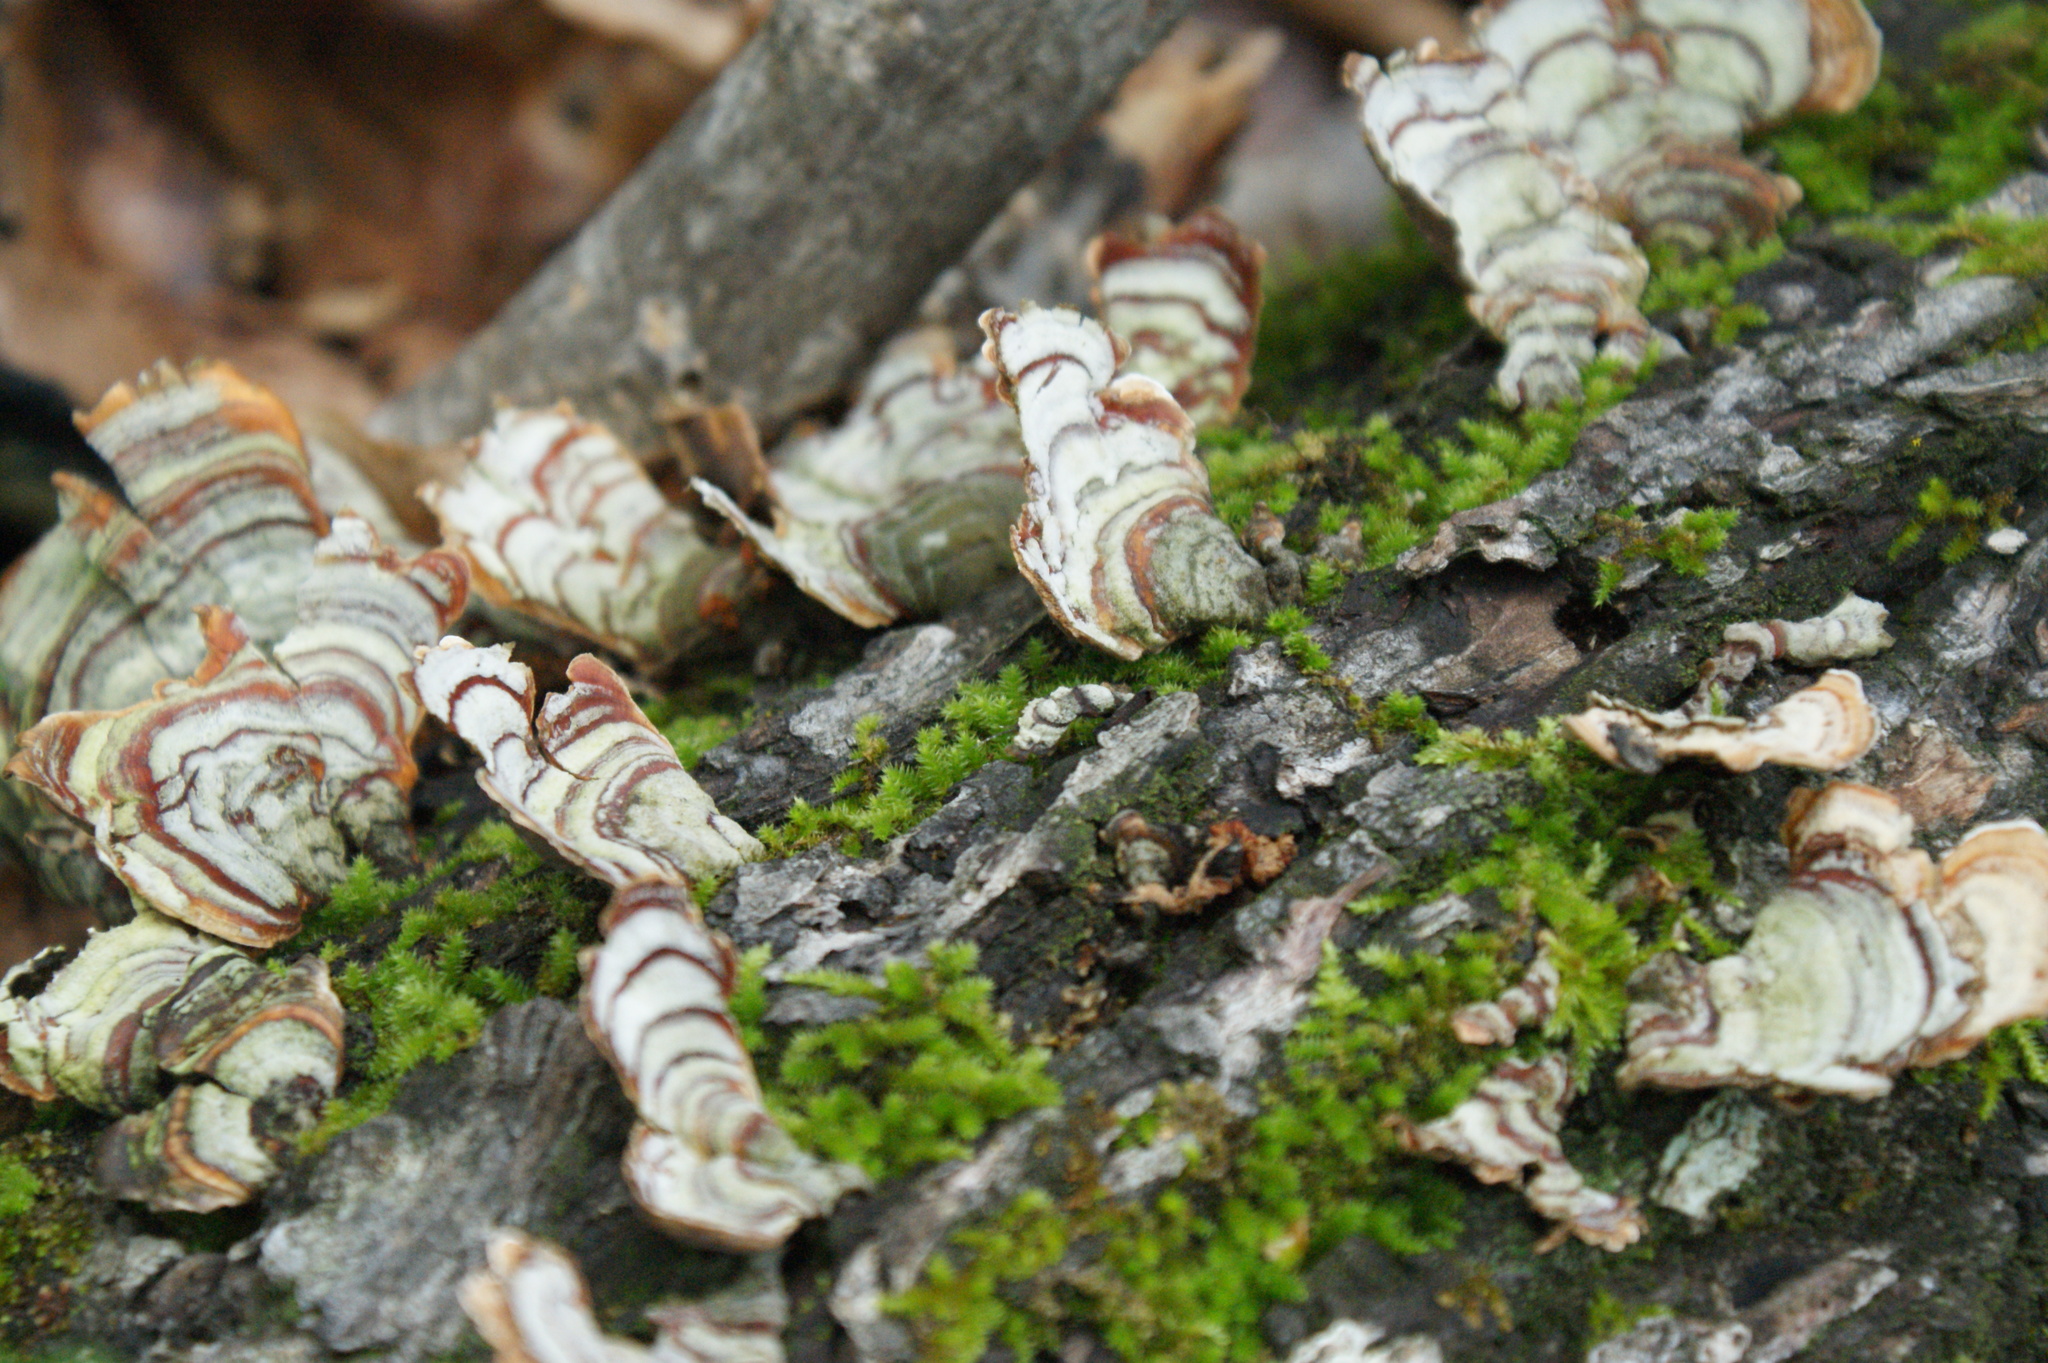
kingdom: Fungi
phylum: Basidiomycota
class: Agaricomycetes
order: Russulales
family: Stereaceae
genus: Stereum
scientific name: Stereum ostrea
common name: False turkeytail
